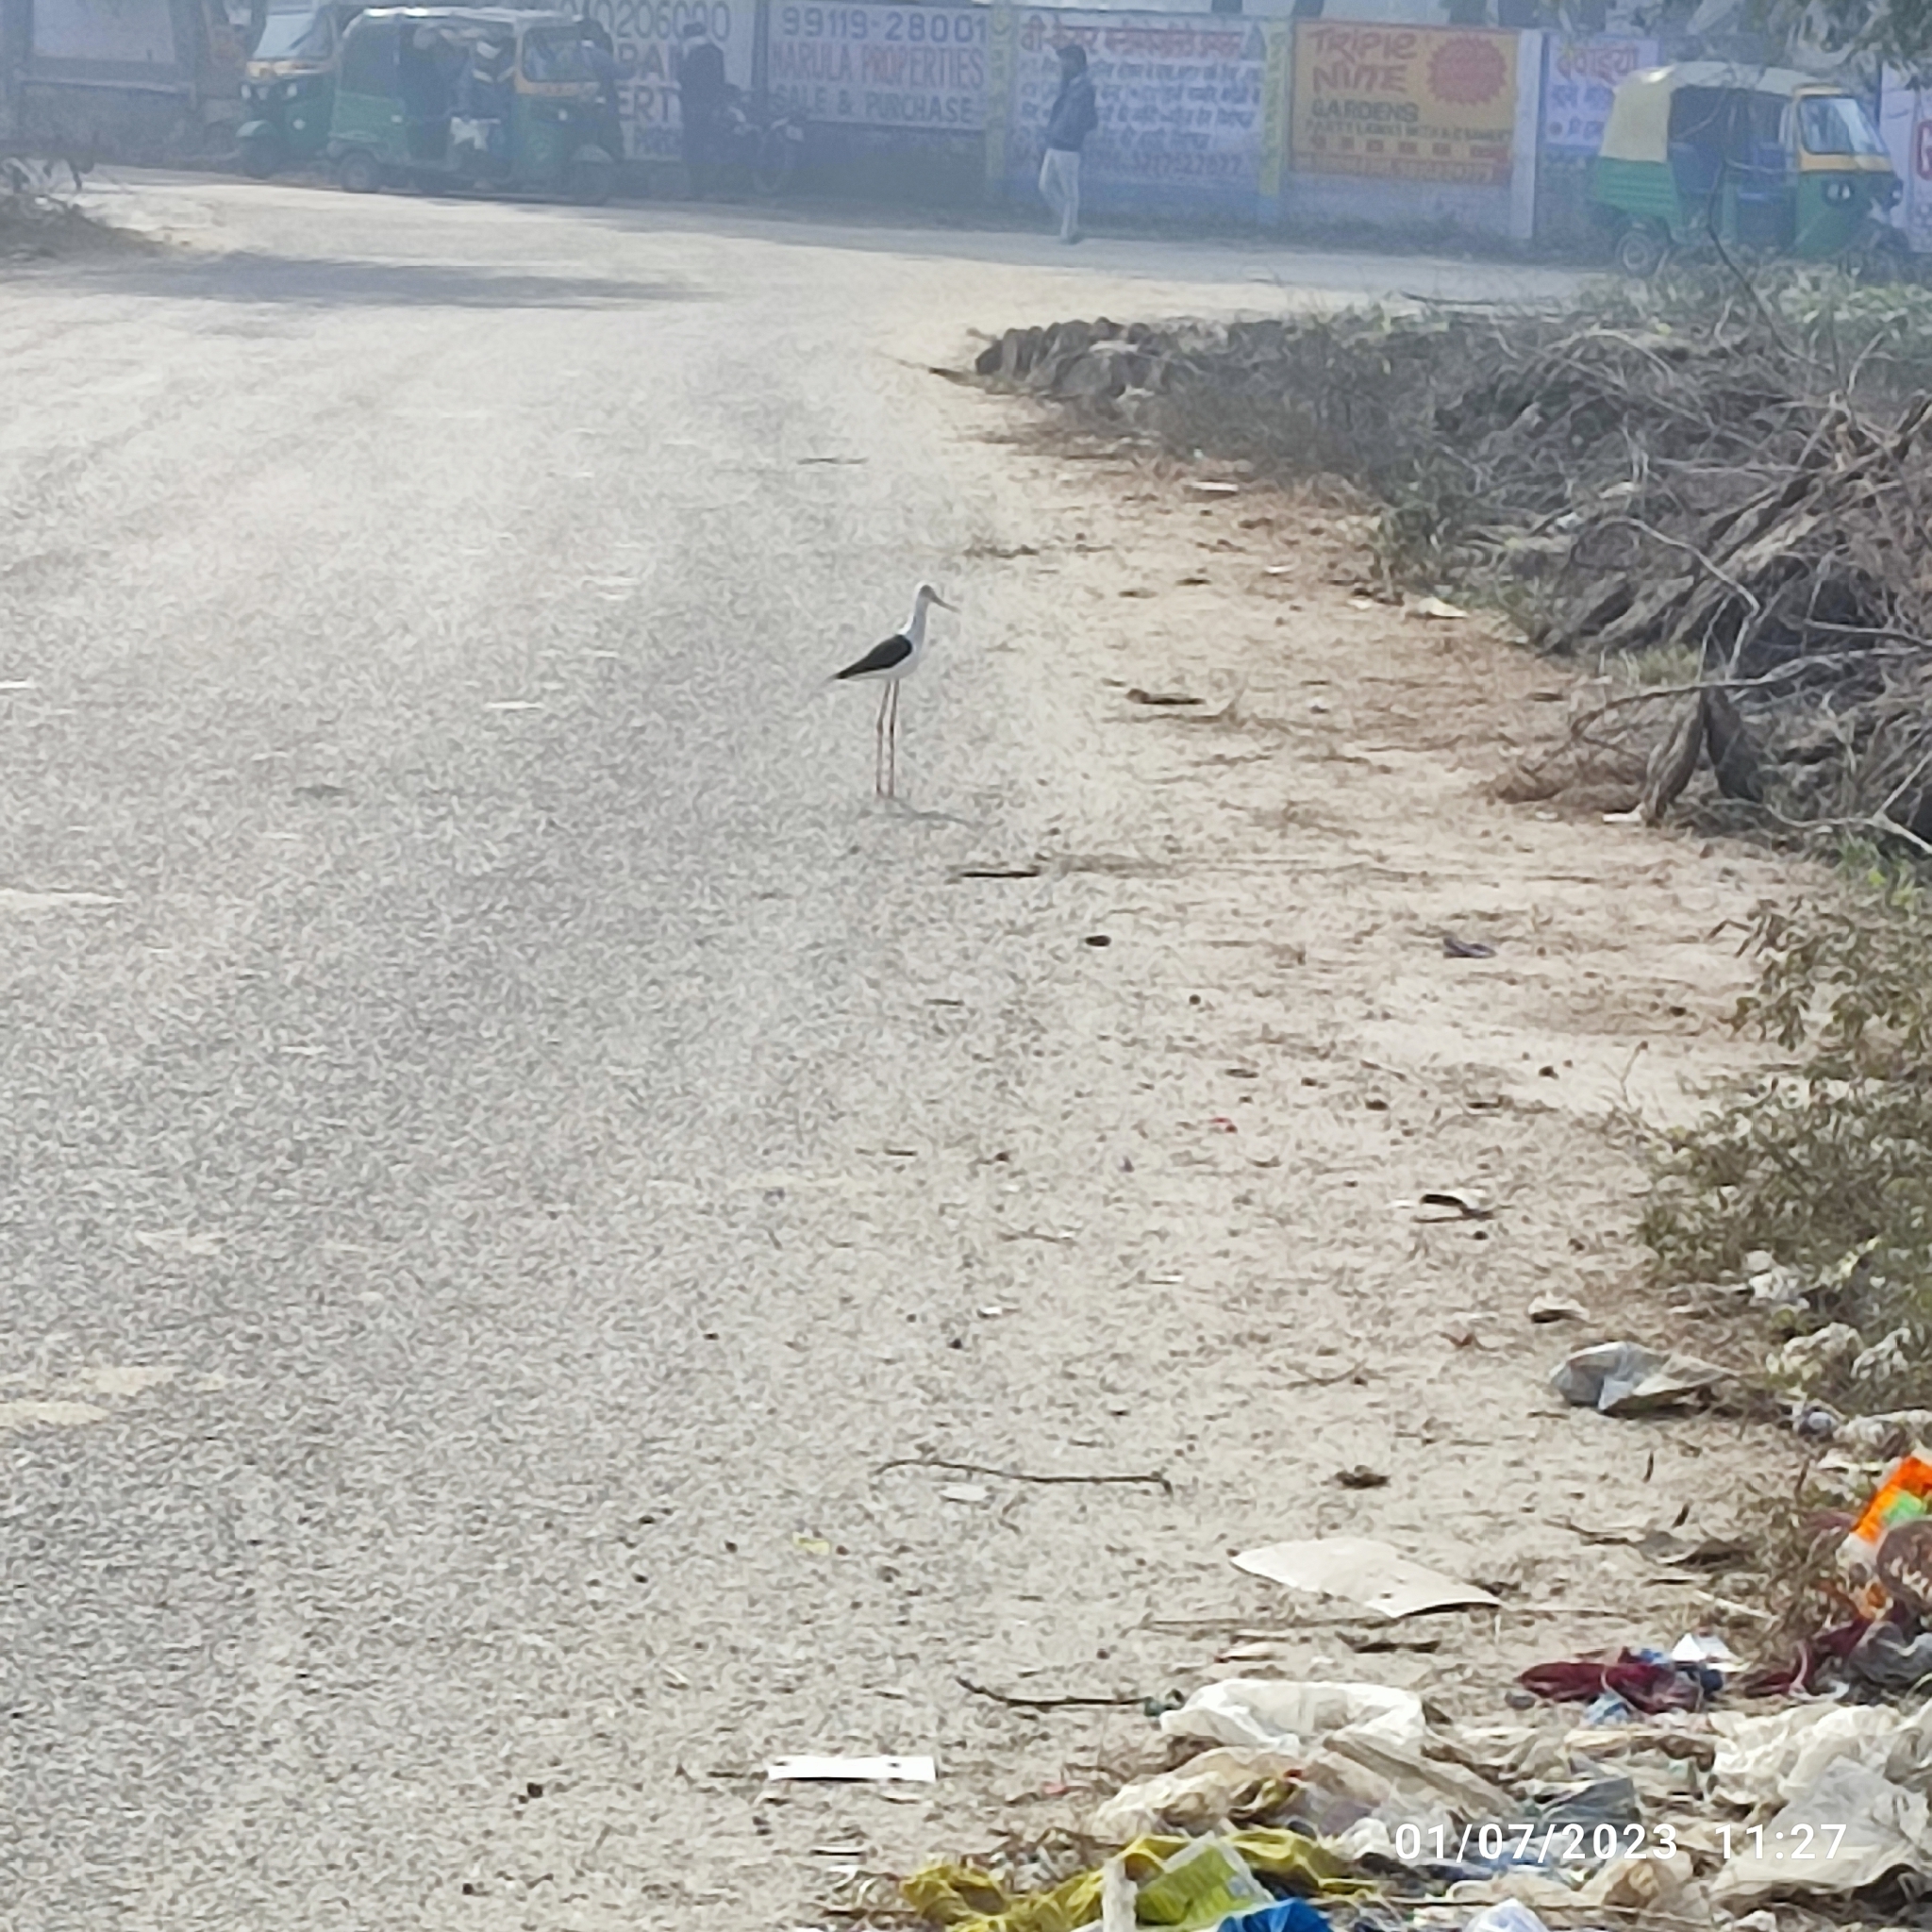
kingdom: Animalia
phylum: Chordata
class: Aves
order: Charadriiformes
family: Recurvirostridae
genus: Himantopus
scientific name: Himantopus himantopus
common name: Black-winged stilt
